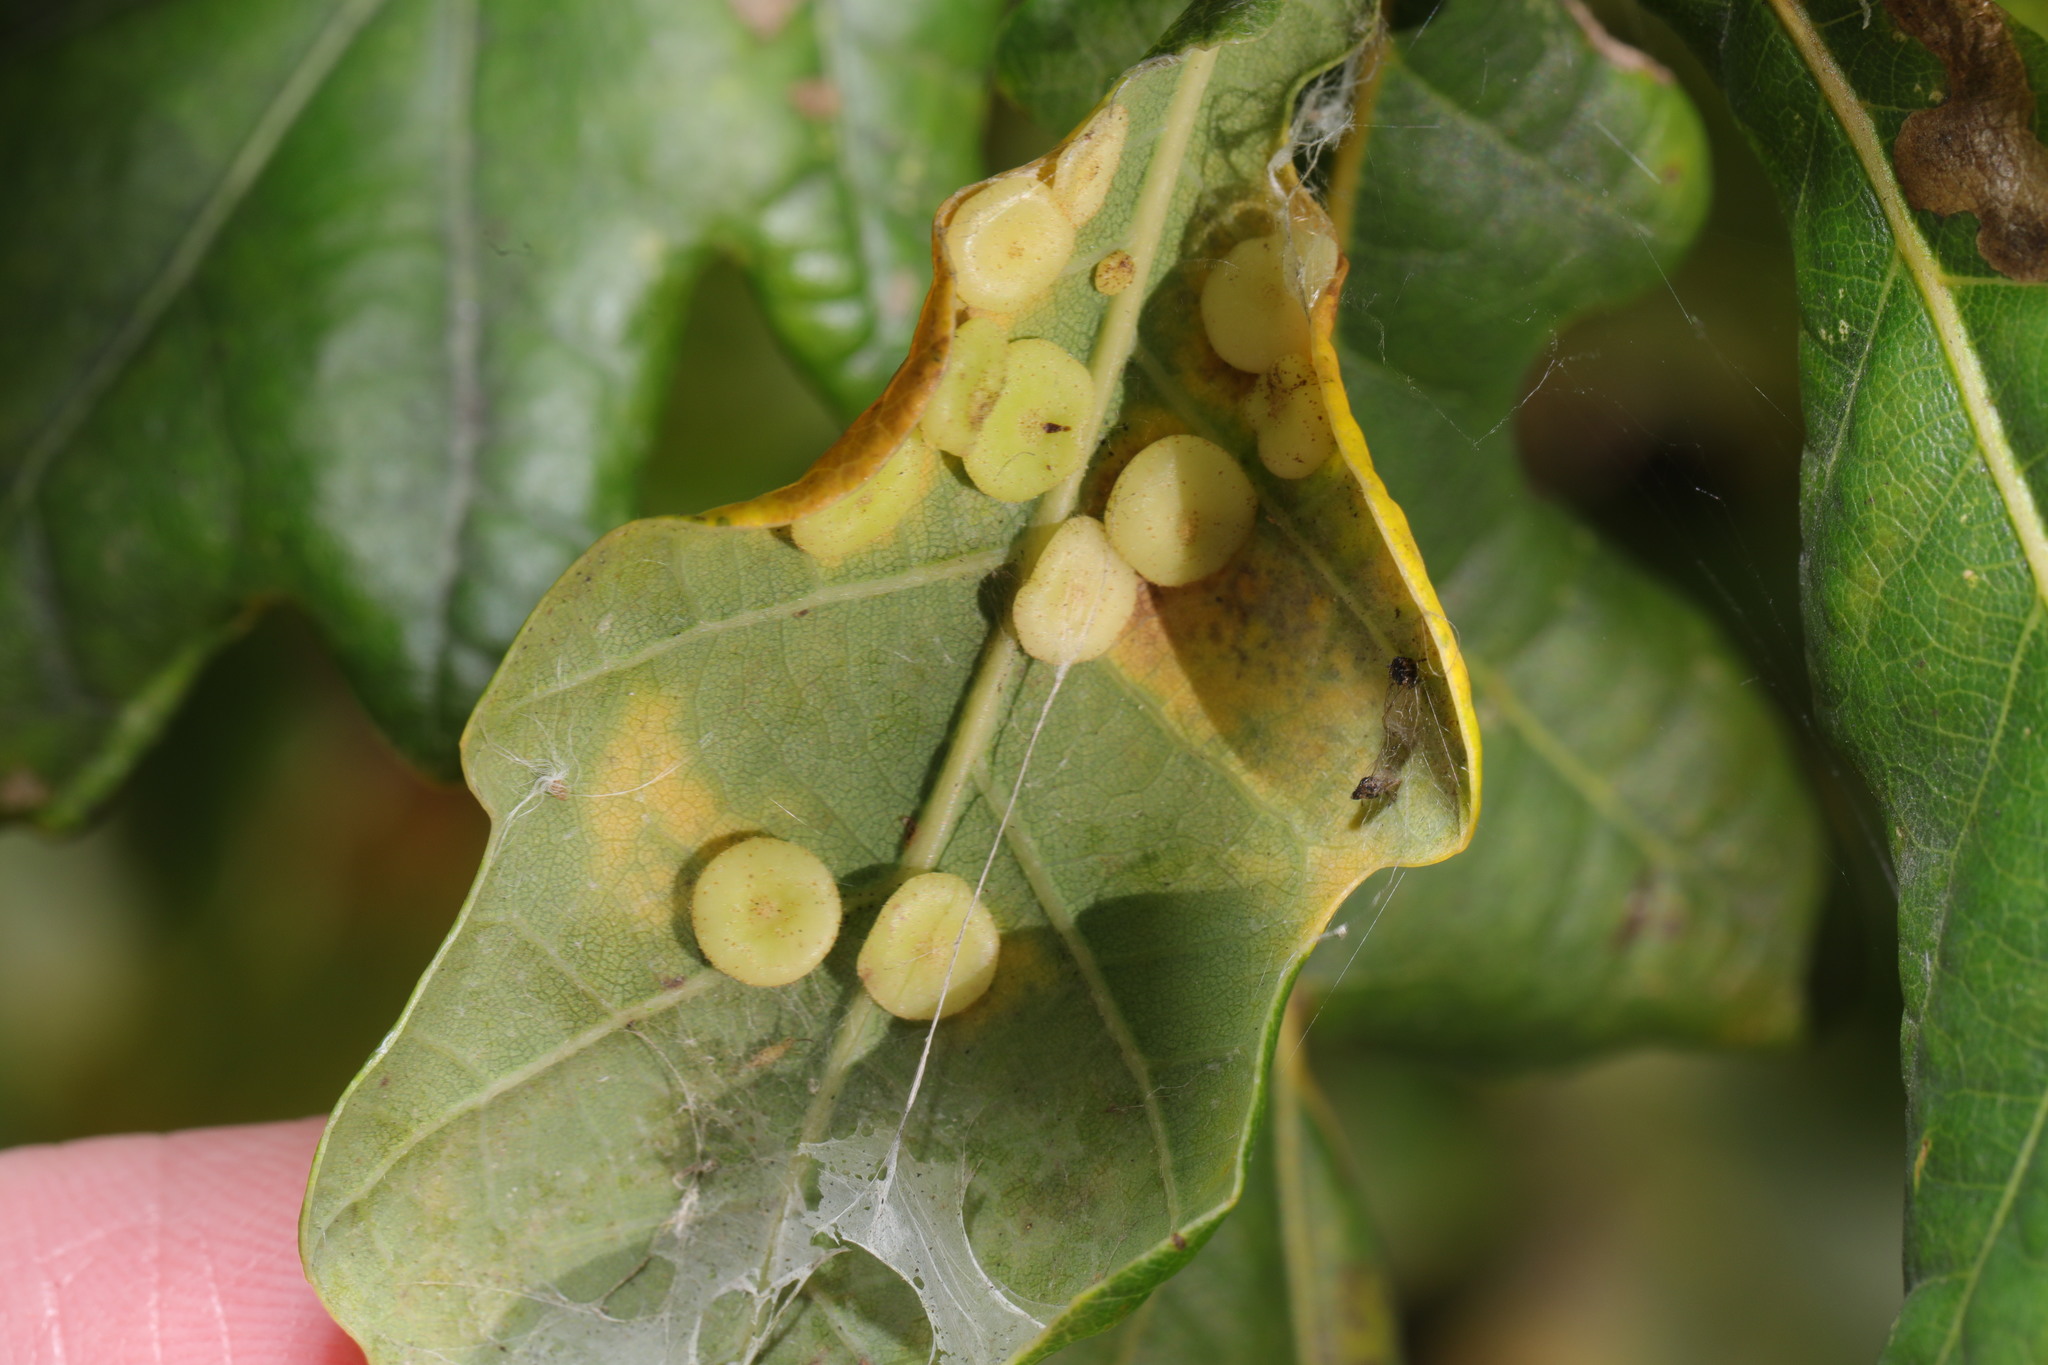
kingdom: Animalia
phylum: Arthropoda
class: Insecta
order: Hymenoptera
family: Cynipidae
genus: Neuroterus
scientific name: Neuroterus albipes
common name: Smooth spangle gall
